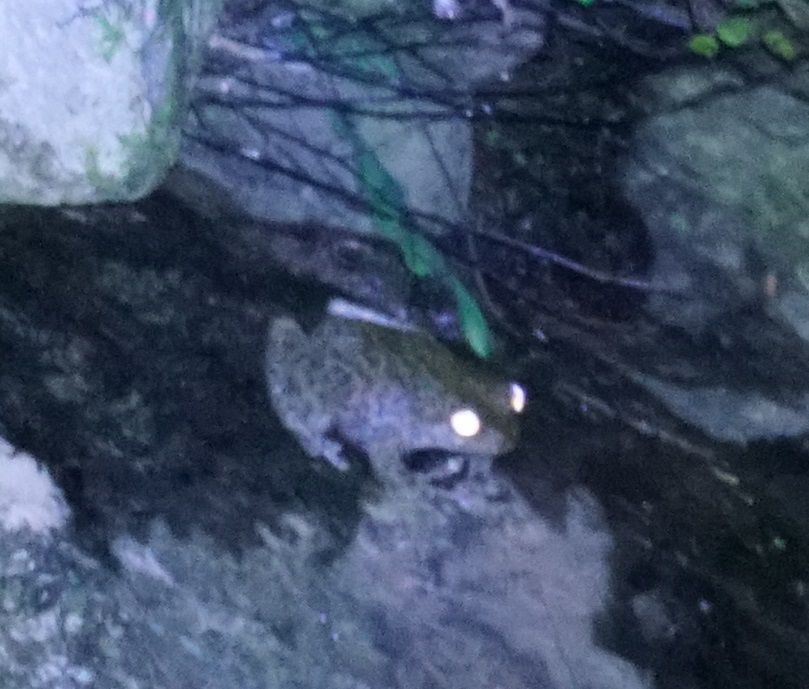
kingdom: Animalia
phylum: Chordata
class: Amphibia
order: Anura
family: Pelodryadidae
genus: Ranoidea
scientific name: Ranoidea nannotis
